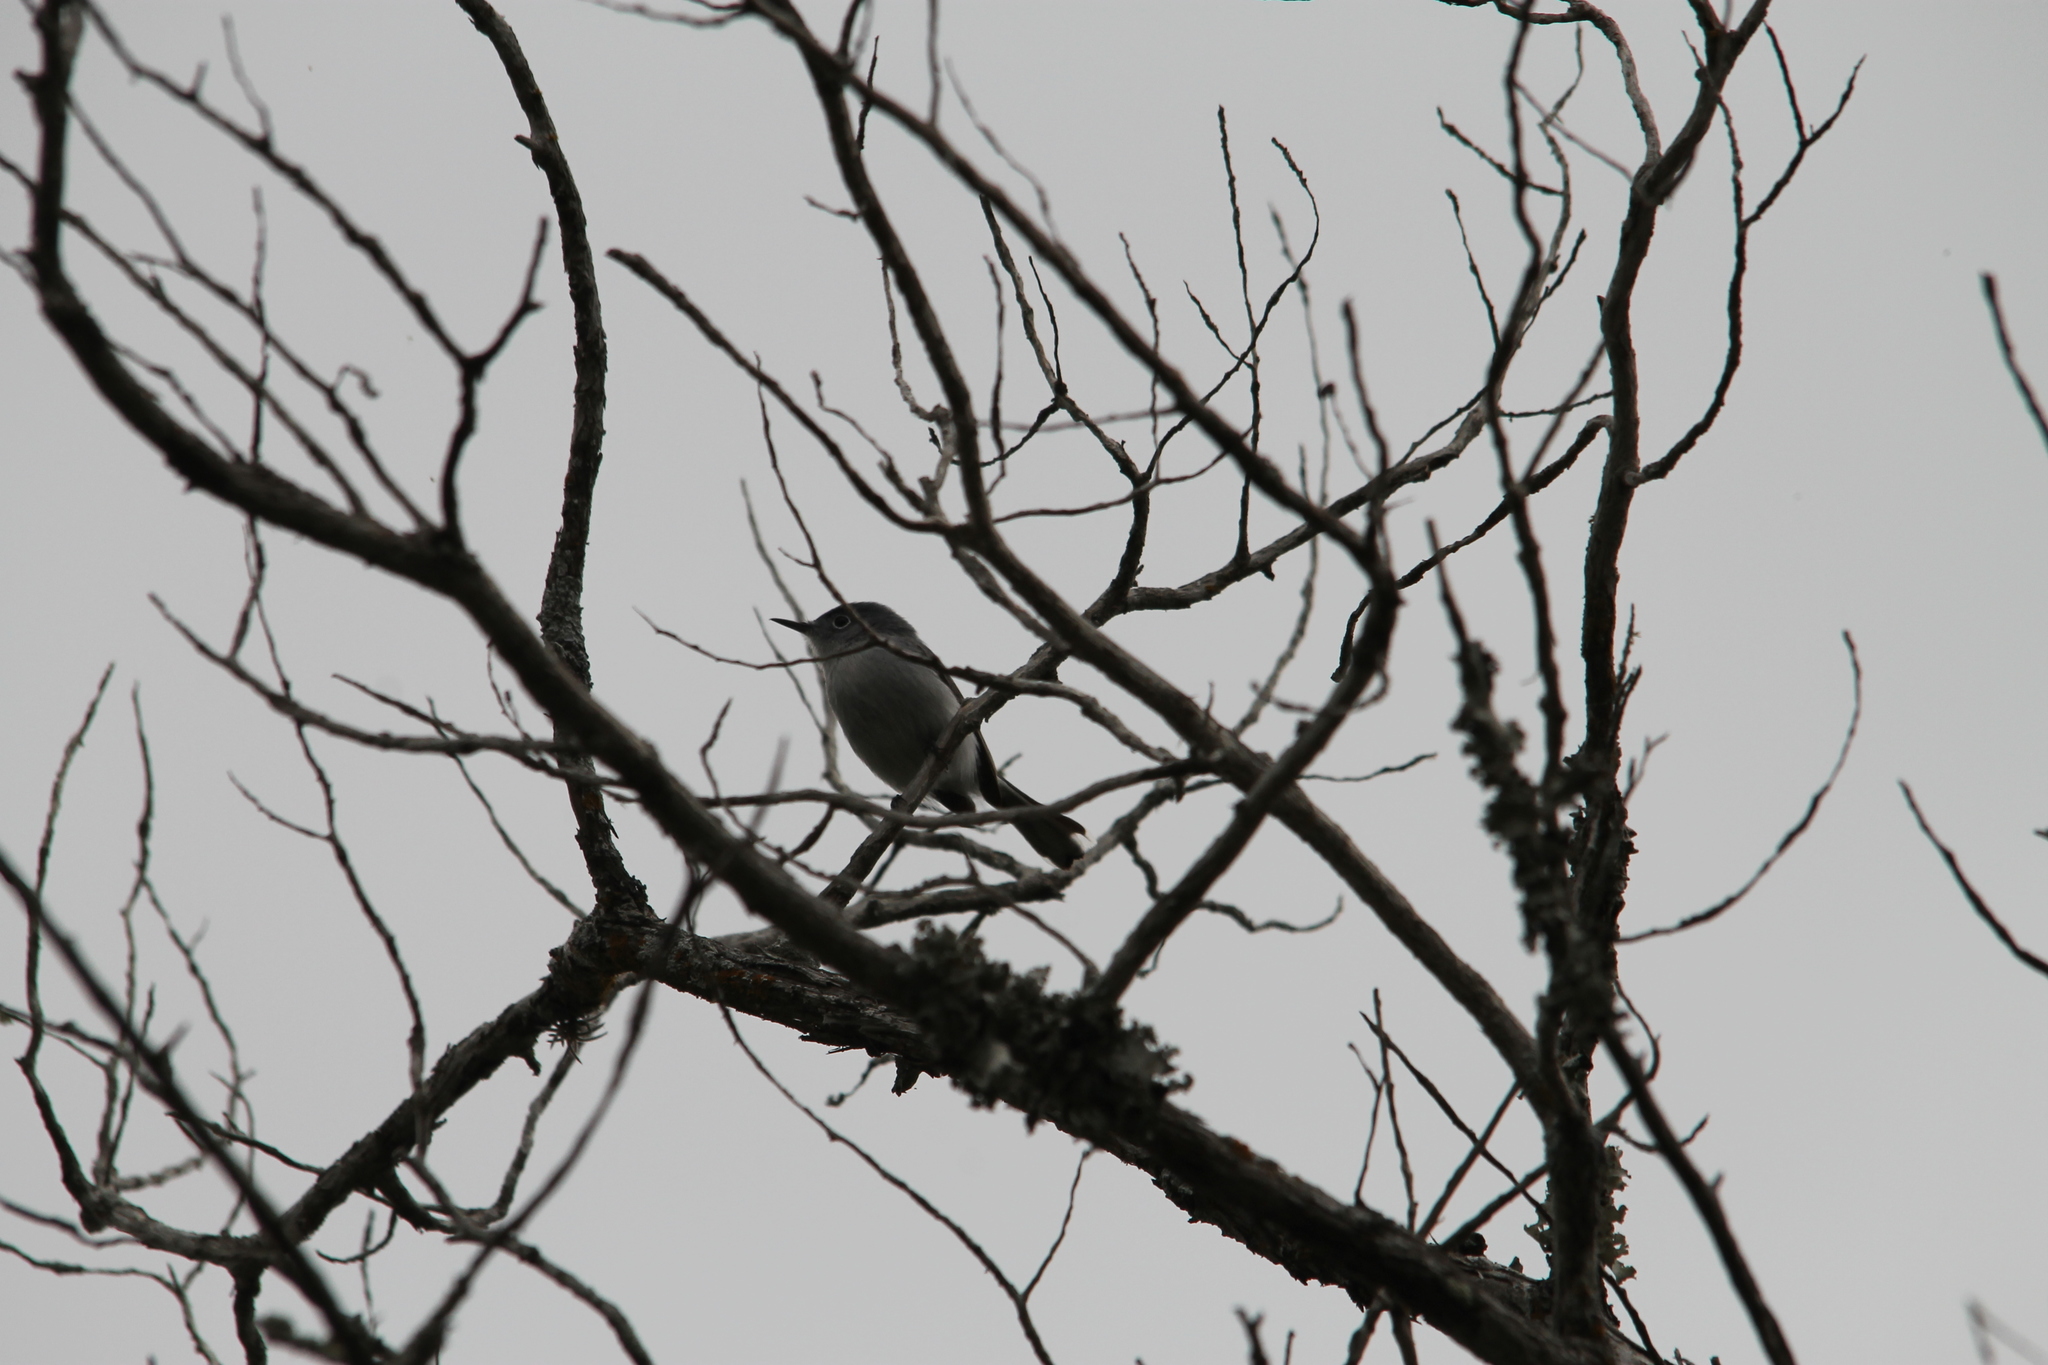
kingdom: Animalia
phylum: Chordata
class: Aves
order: Passeriformes
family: Polioptilidae
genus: Polioptila
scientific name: Polioptila caerulea
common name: Blue-gray gnatcatcher
